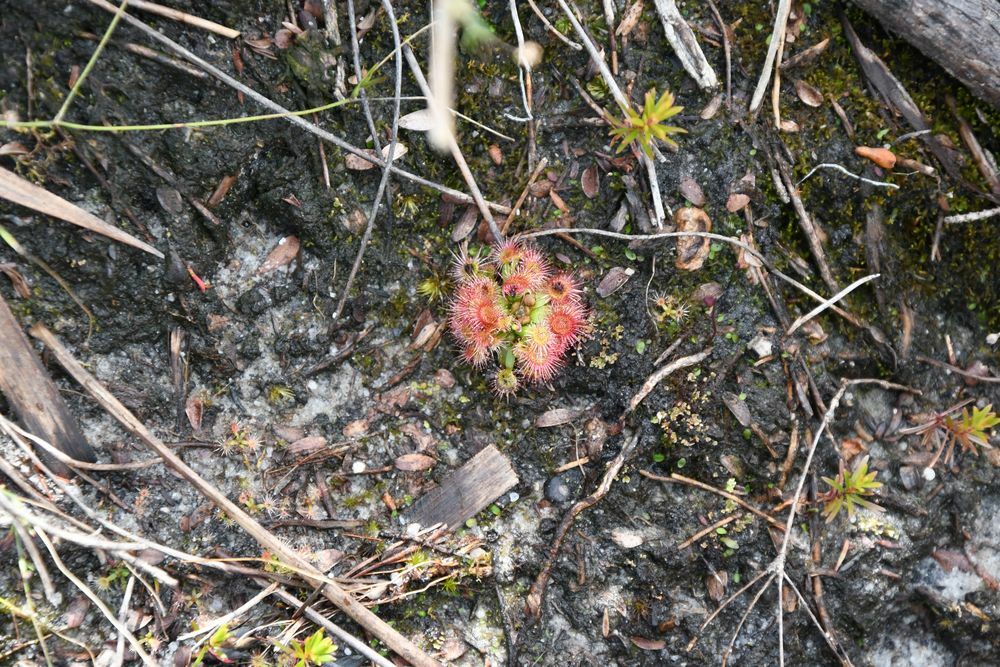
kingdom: Plantae
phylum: Tracheophyta
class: Magnoliopsida
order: Caryophyllales
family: Droseraceae
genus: Drosera
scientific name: Drosera pulchella
